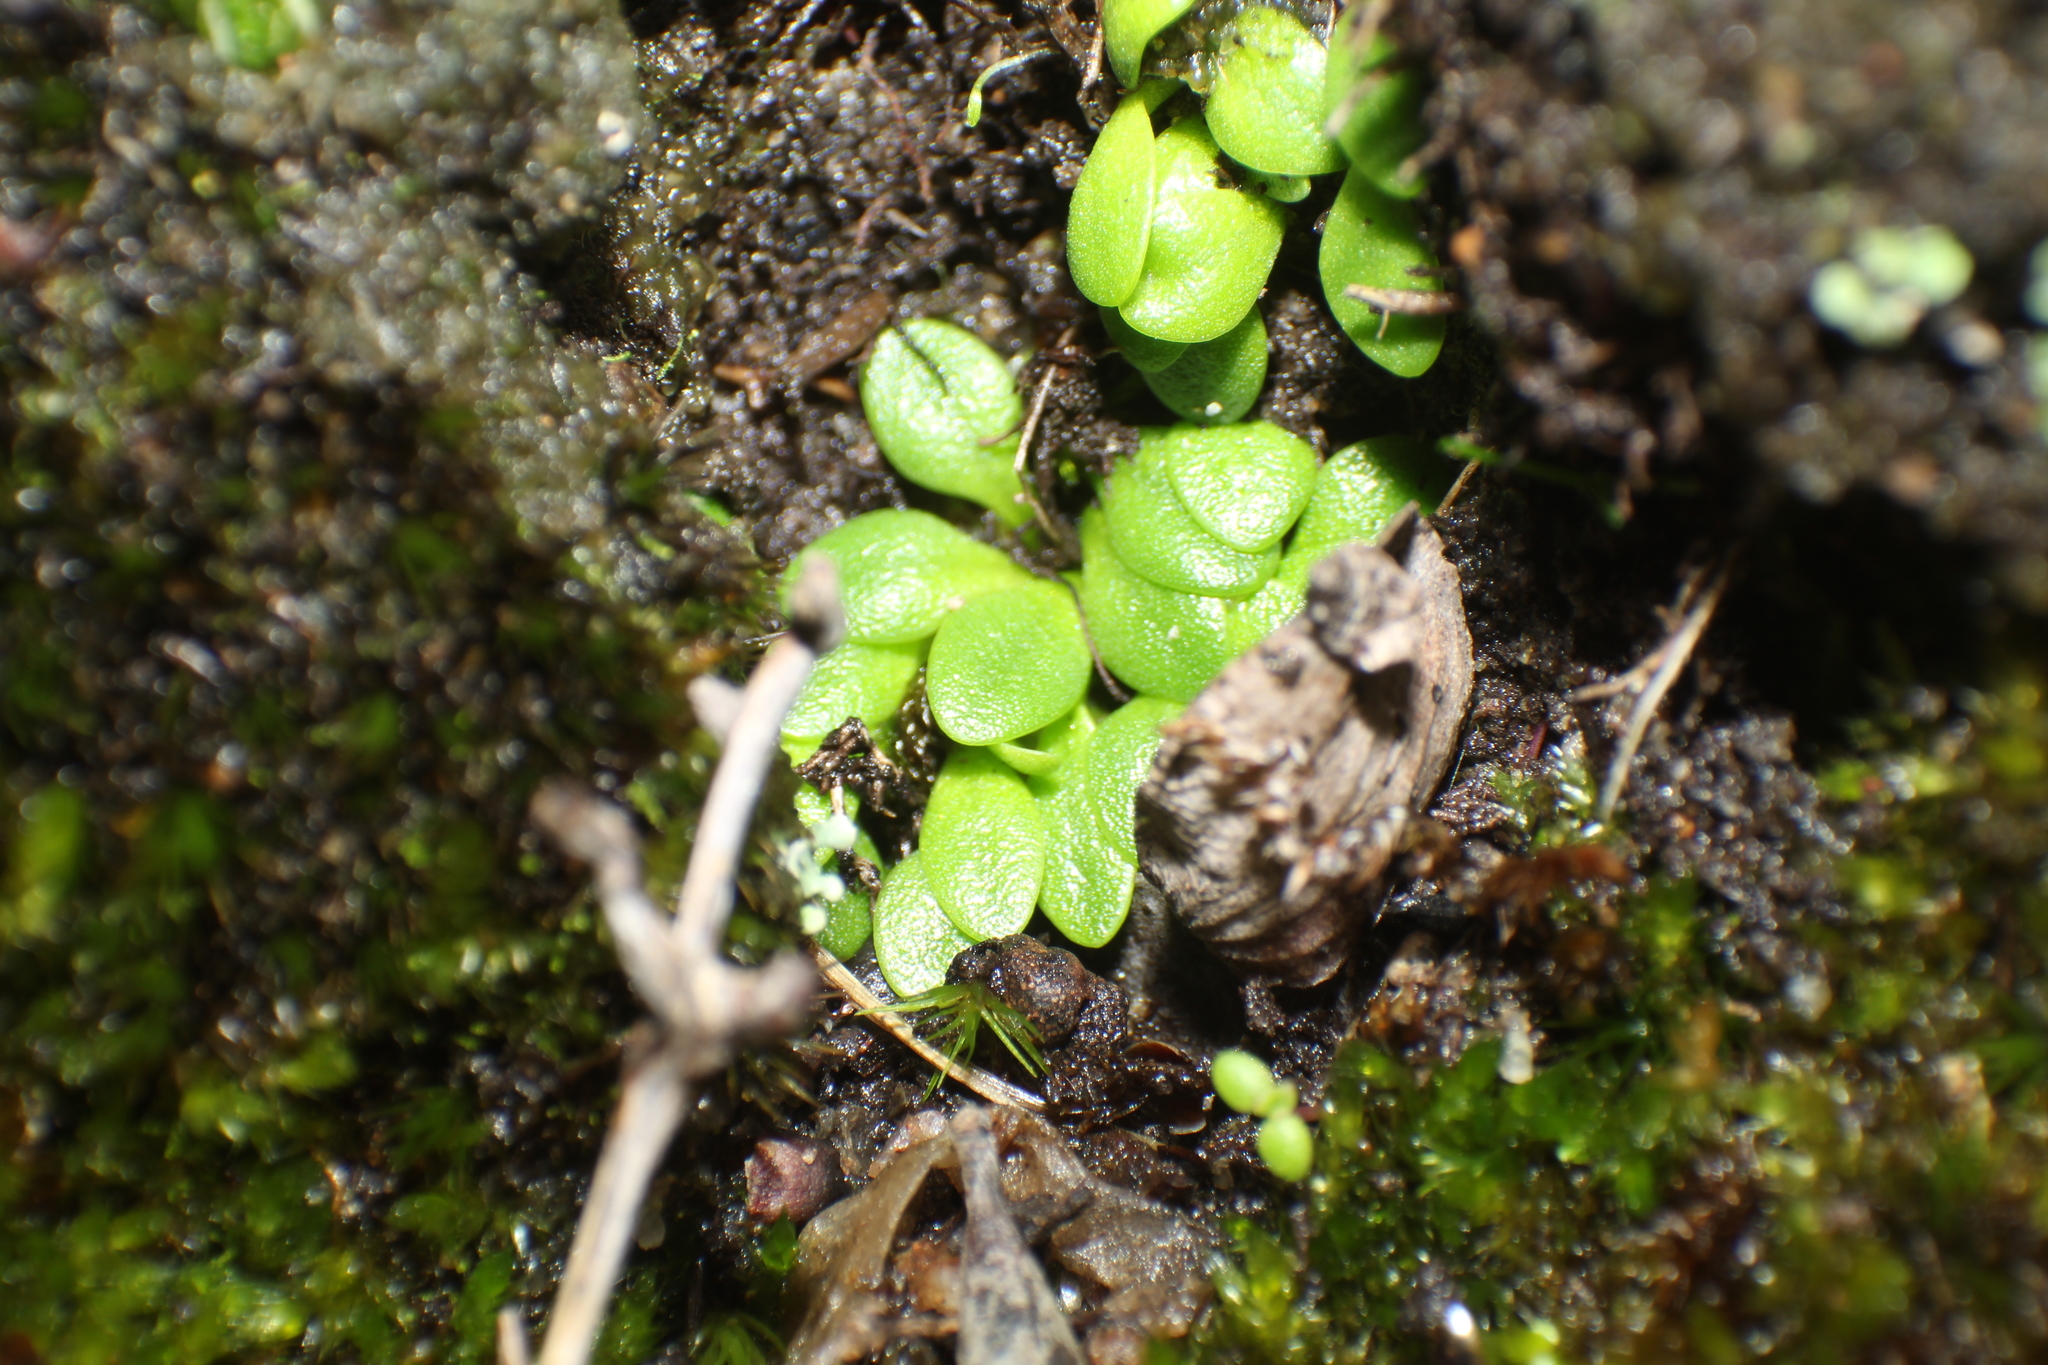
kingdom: Plantae
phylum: Tracheophyta
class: Magnoliopsida
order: Lamiales
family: Lentibulariaceae
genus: Utricularia
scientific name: Utricularia menziesii
